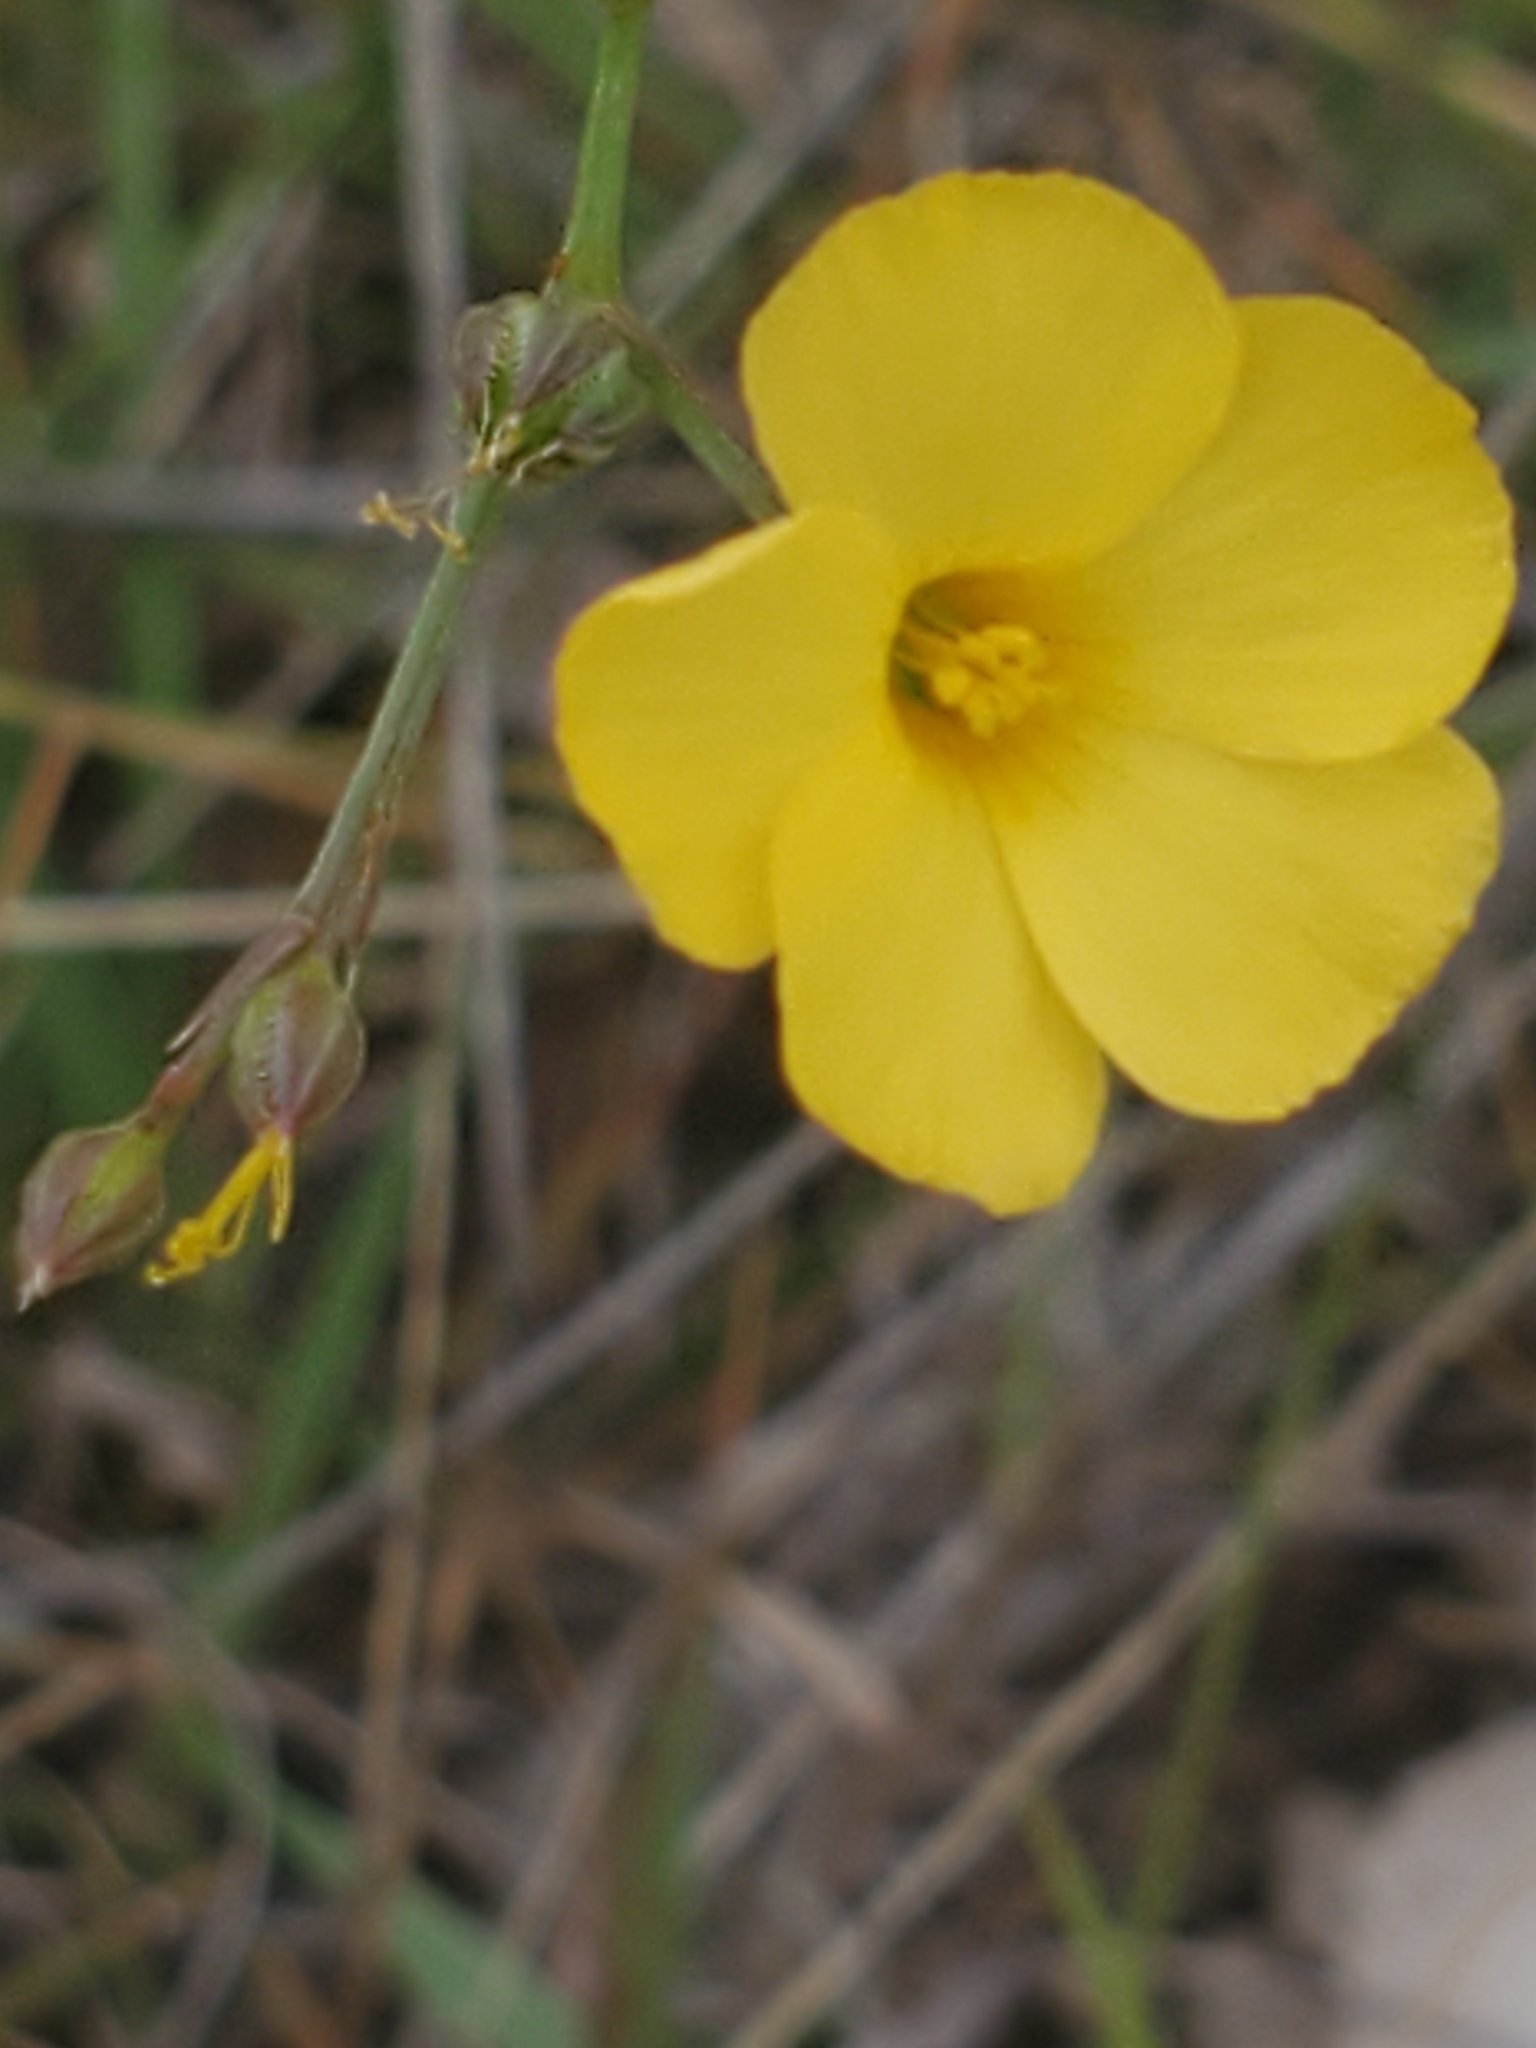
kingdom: Plantae
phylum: Tracheophyta
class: Magnoliopsida
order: Malpighiales
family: Linaceae
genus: Linum
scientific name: Linum rupestre
